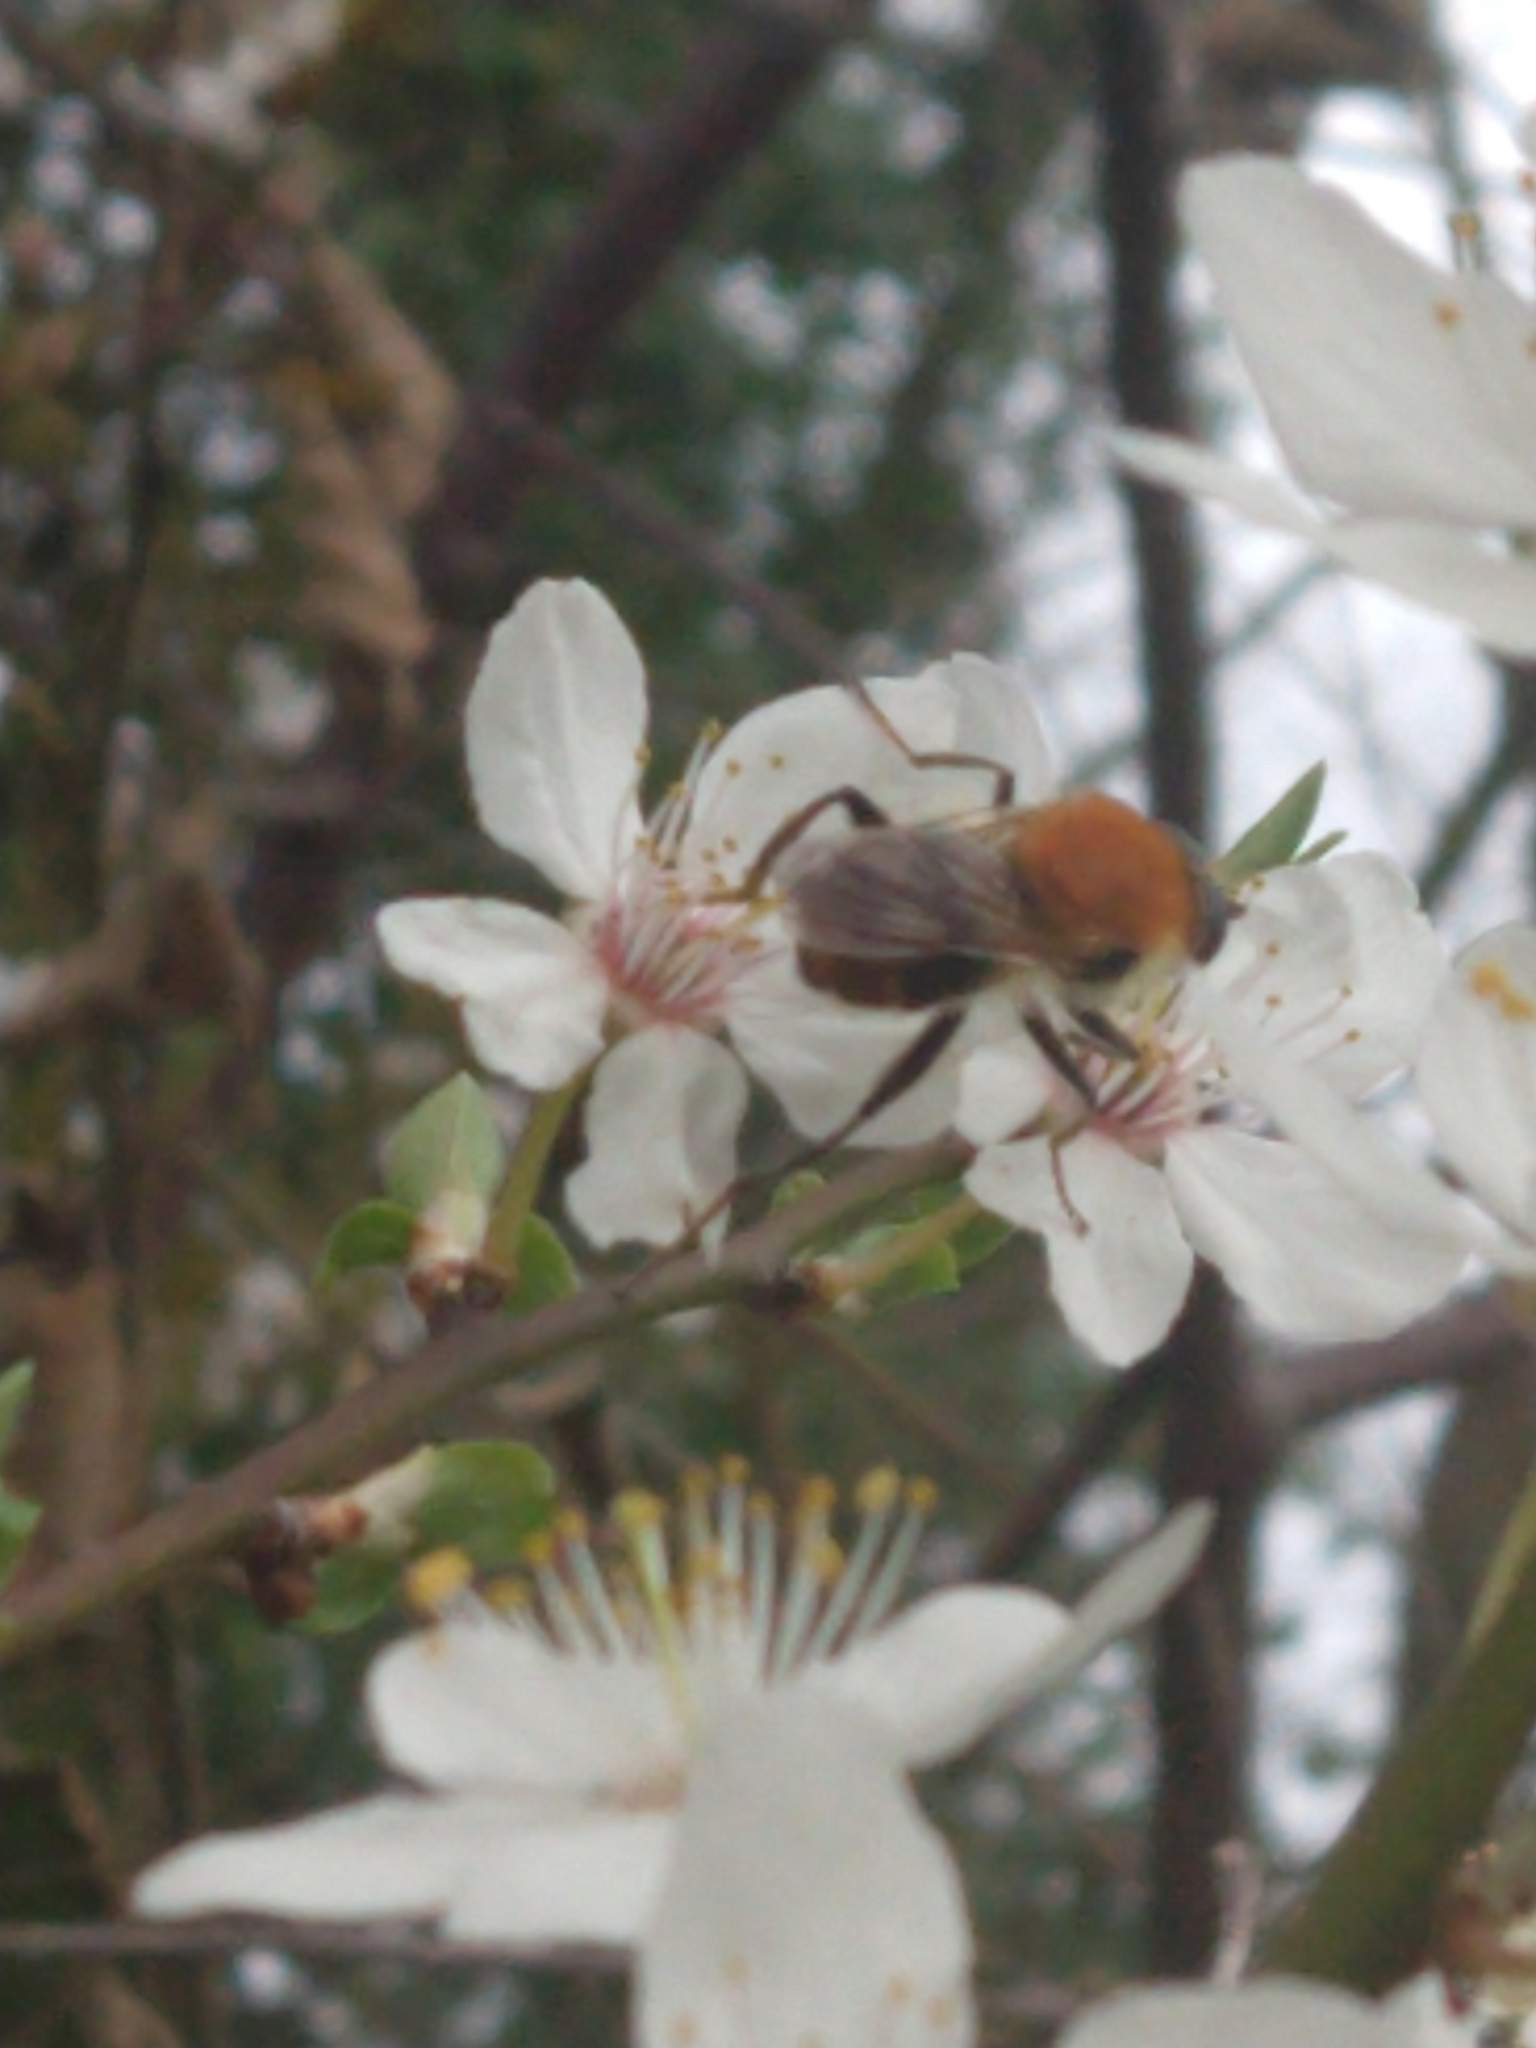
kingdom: Animalia
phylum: Arthropoda
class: Insecta
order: Diptera
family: Syrphidae
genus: Merodon
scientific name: Merodon equestris
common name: Greater bulb-fly
